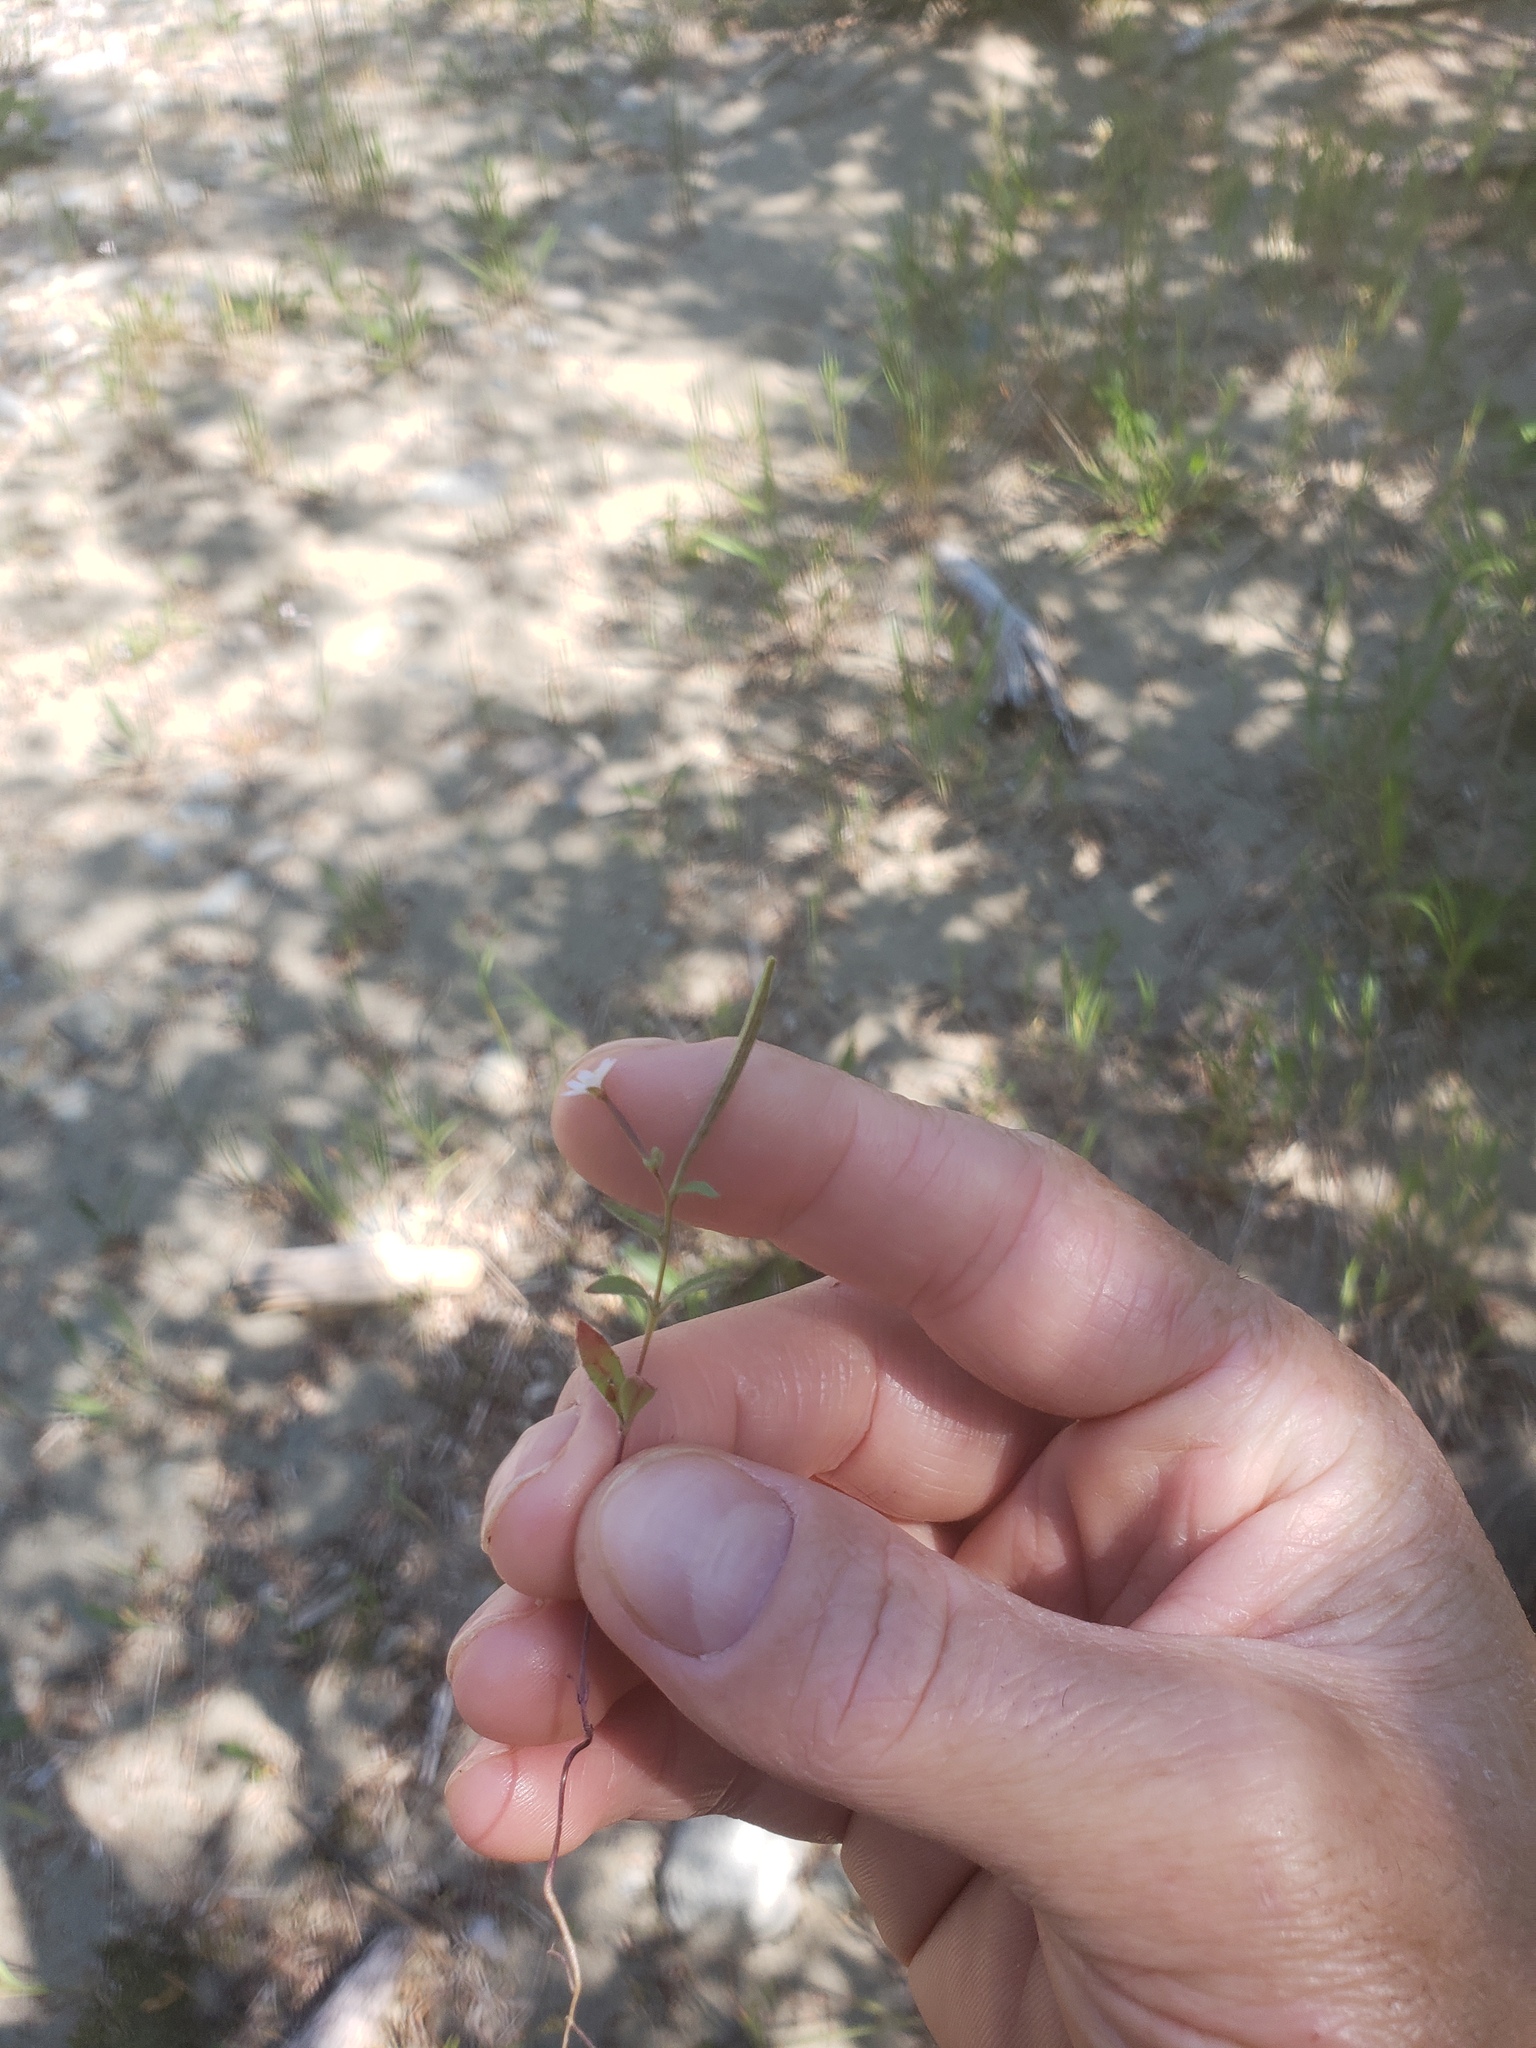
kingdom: Plantae
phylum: Tracheophyta
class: Magnoliopsida
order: Myrtales
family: Onagraceae
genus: Epilobium
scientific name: Epilobium minutum
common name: Chaparral willowherb
